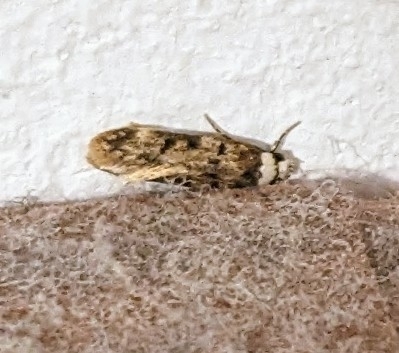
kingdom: Animalia
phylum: Arthropoda
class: Insecta
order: Lepidoptera
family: Oecophoridae
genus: Endrosis
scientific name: Endrosis sarcitrella
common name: White-shouldered house moth
